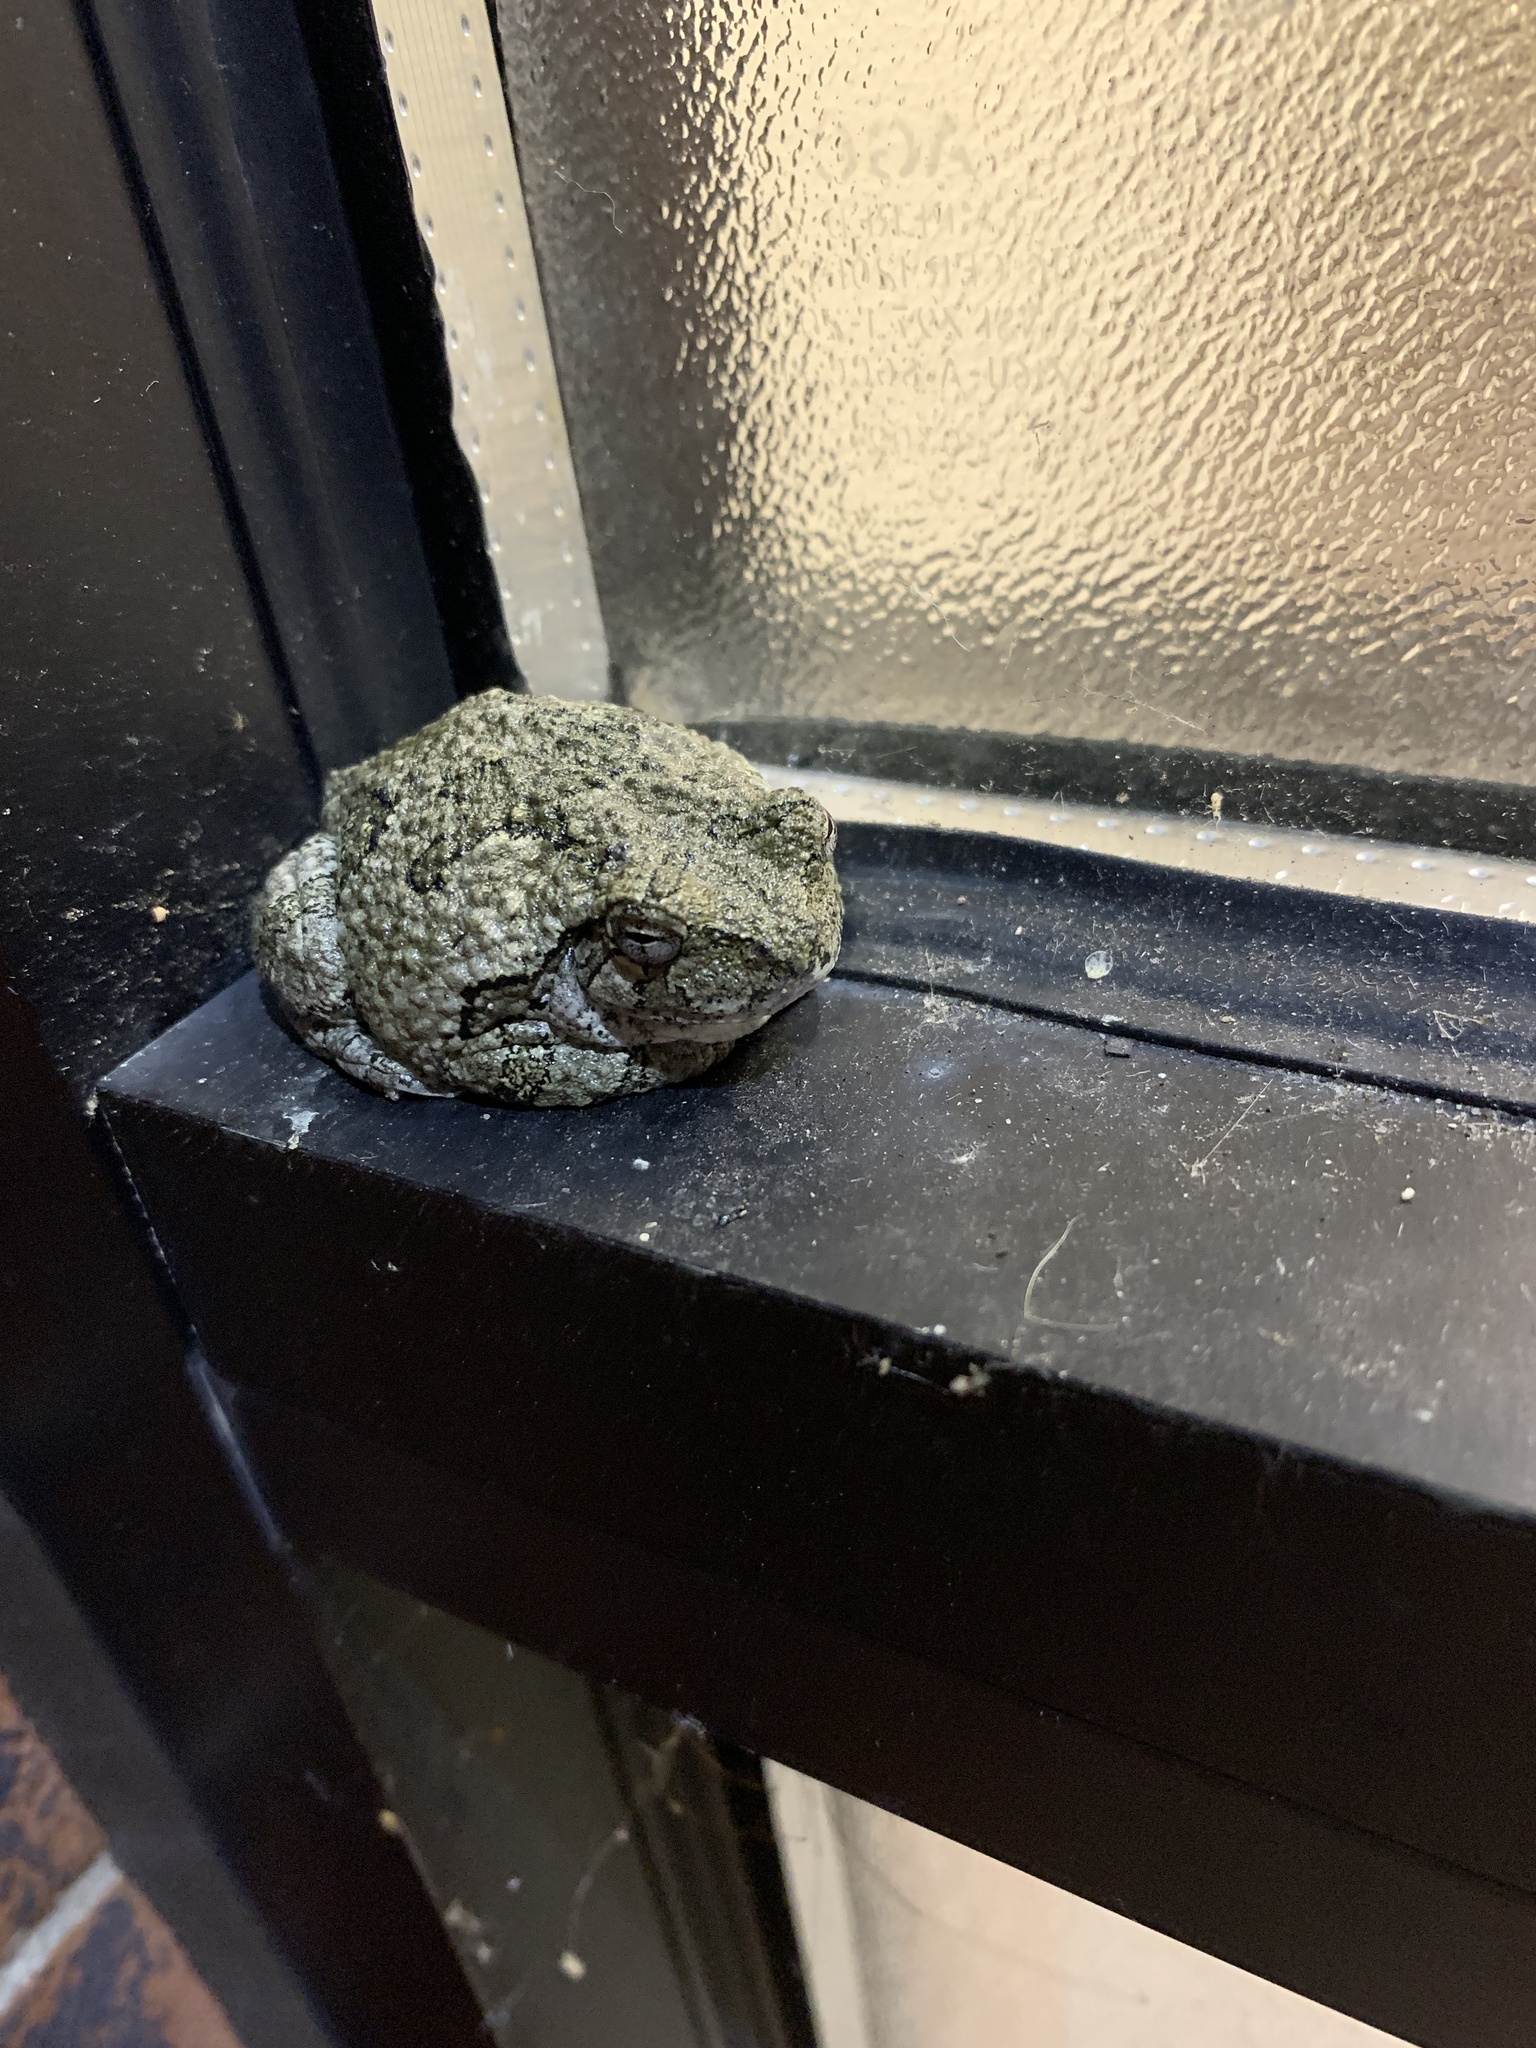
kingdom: Animalia
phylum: Chordata
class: Amphibia
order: Anura
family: Hylidae
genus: Dryophytes
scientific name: Dryophytes versicolor
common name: Gray treefrog
